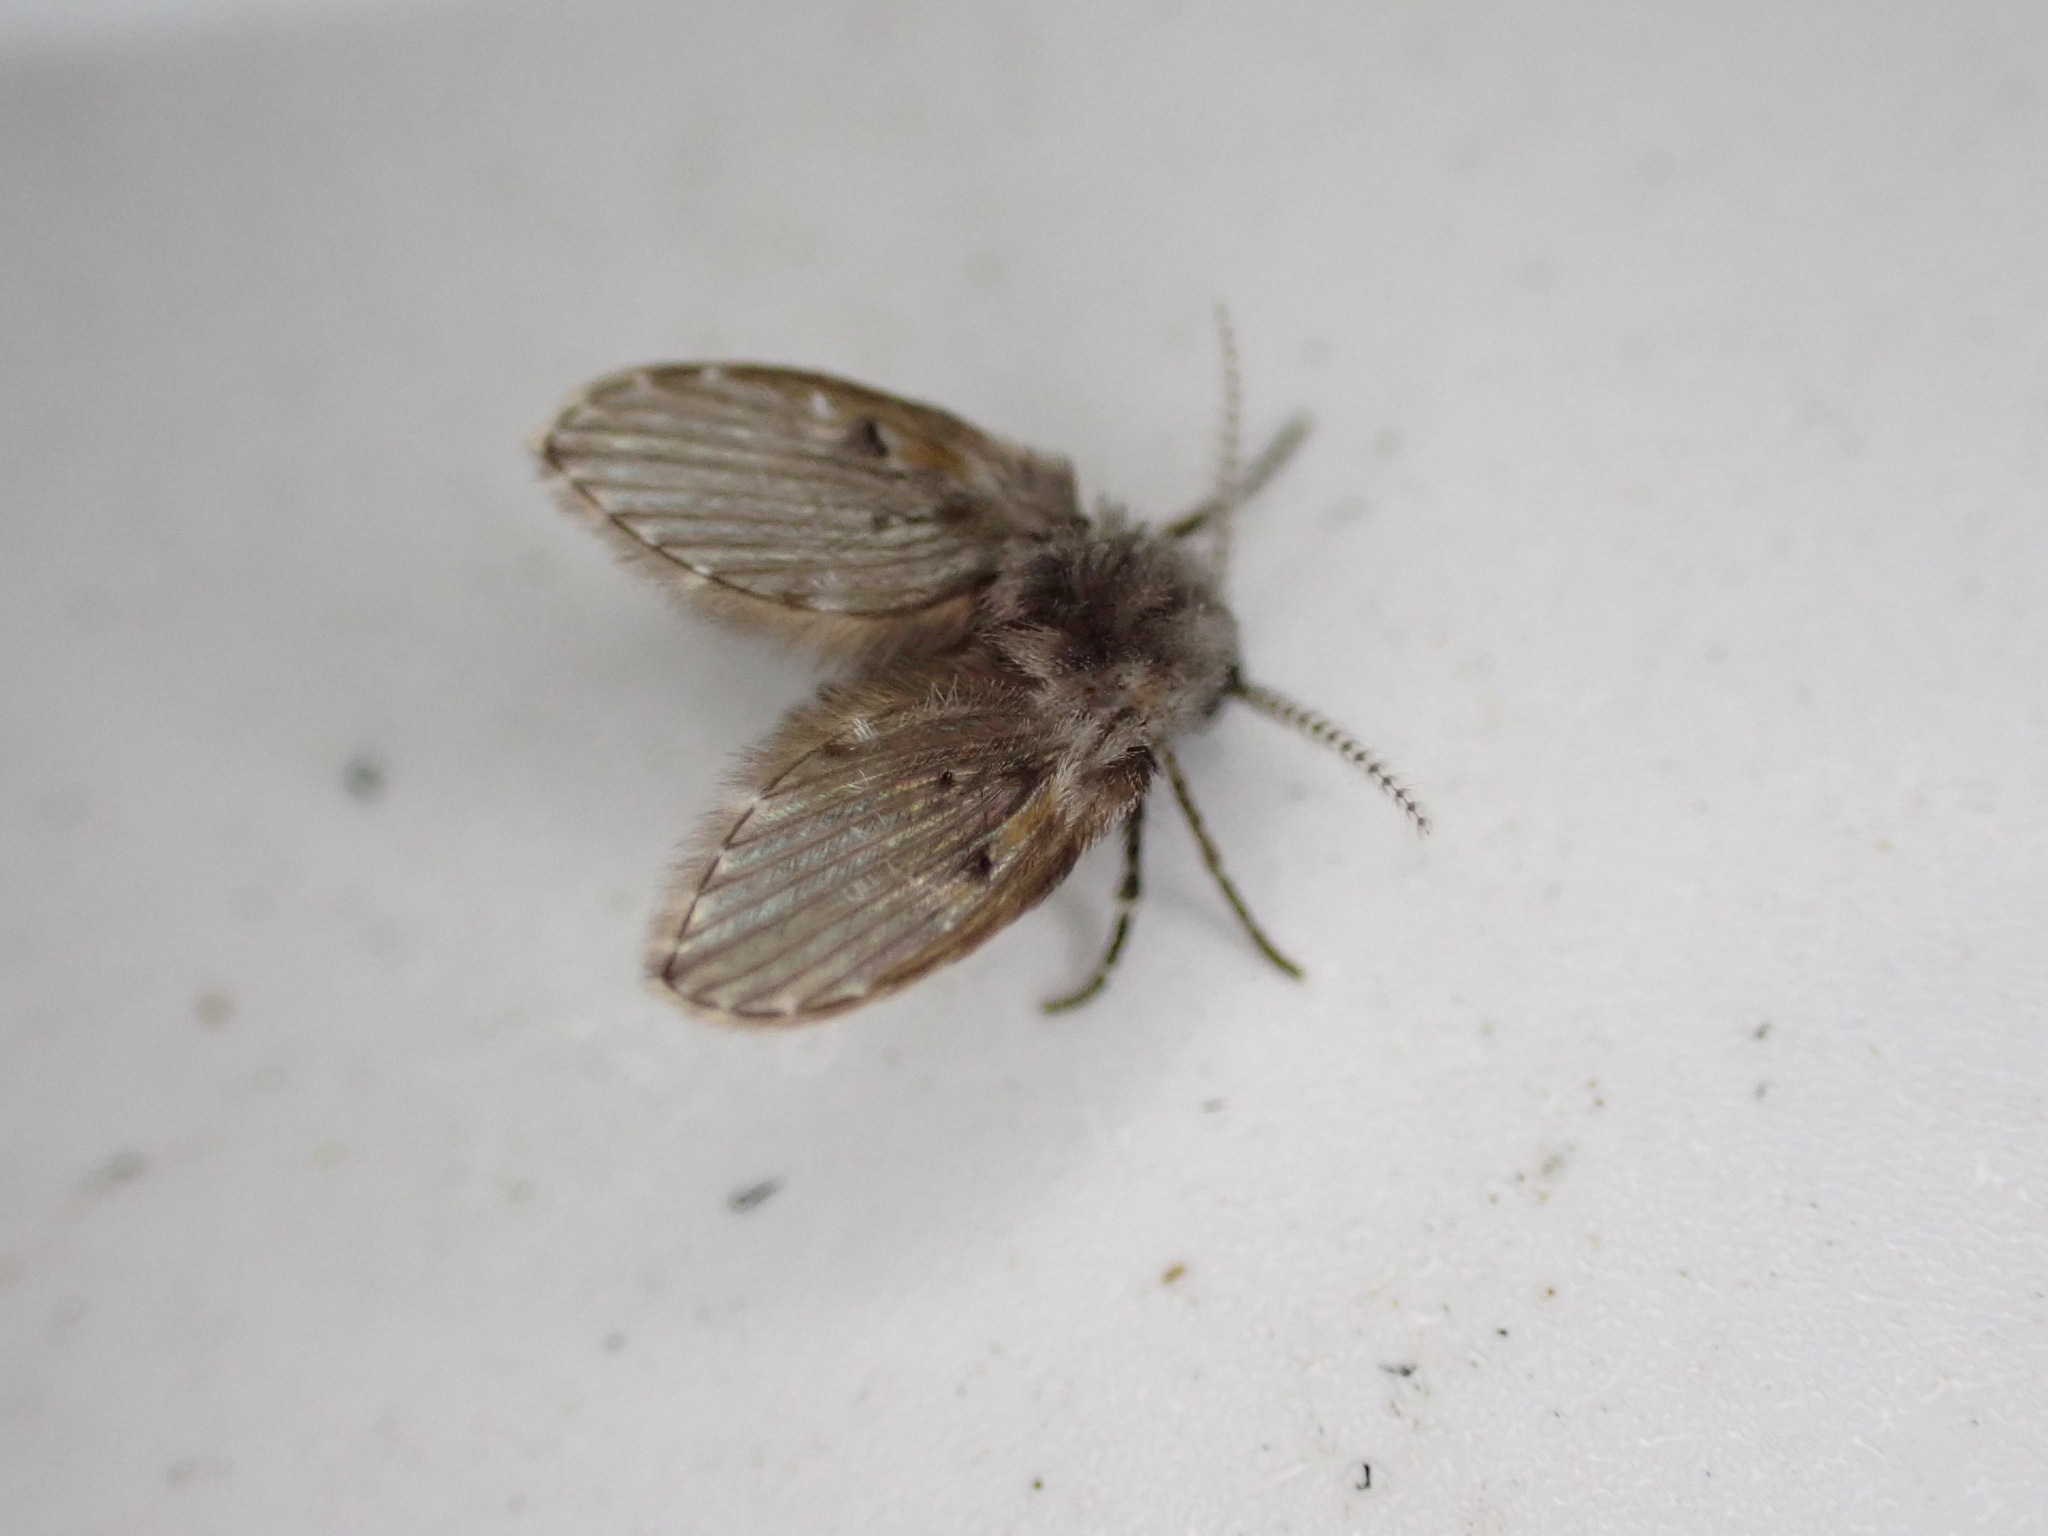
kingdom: Animalia
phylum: Arthropoda
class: Insecta
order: Diptera
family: Psychodidae
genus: Clogmia
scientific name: Clogmia albipunctatus
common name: White-spotted moth fly
